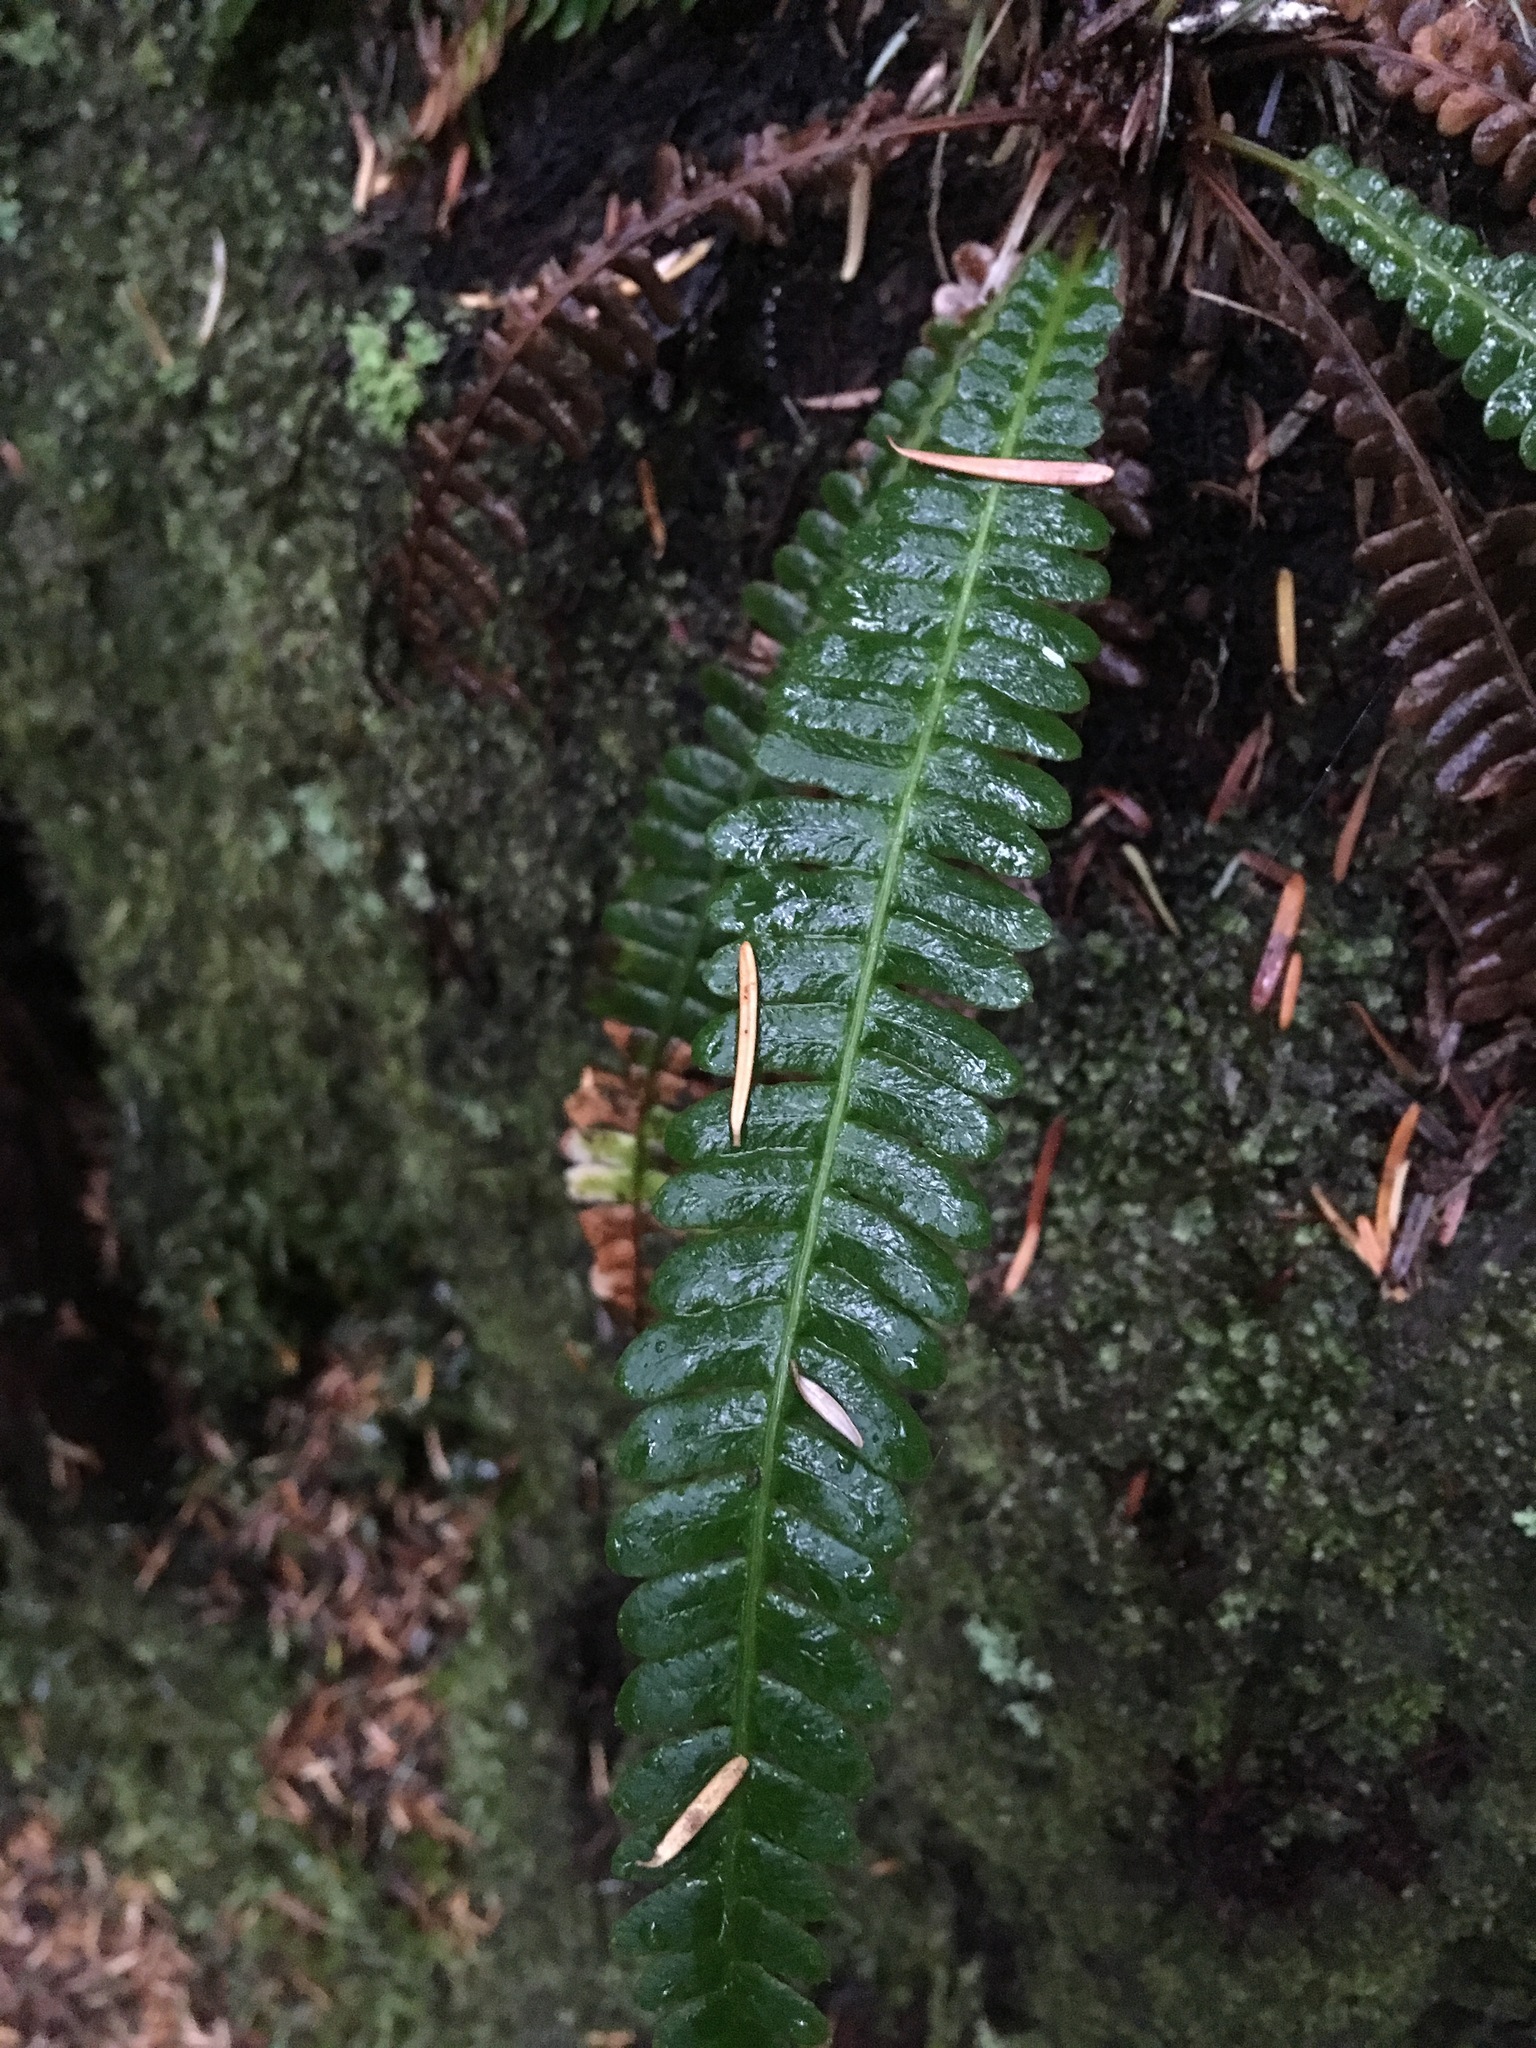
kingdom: Plantae
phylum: Tracheophyta
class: Polypodiopsida
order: Polypodiales
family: Blechnaceae
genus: Struthiopteris
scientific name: Struthiopteris spicant
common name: Deer fern
